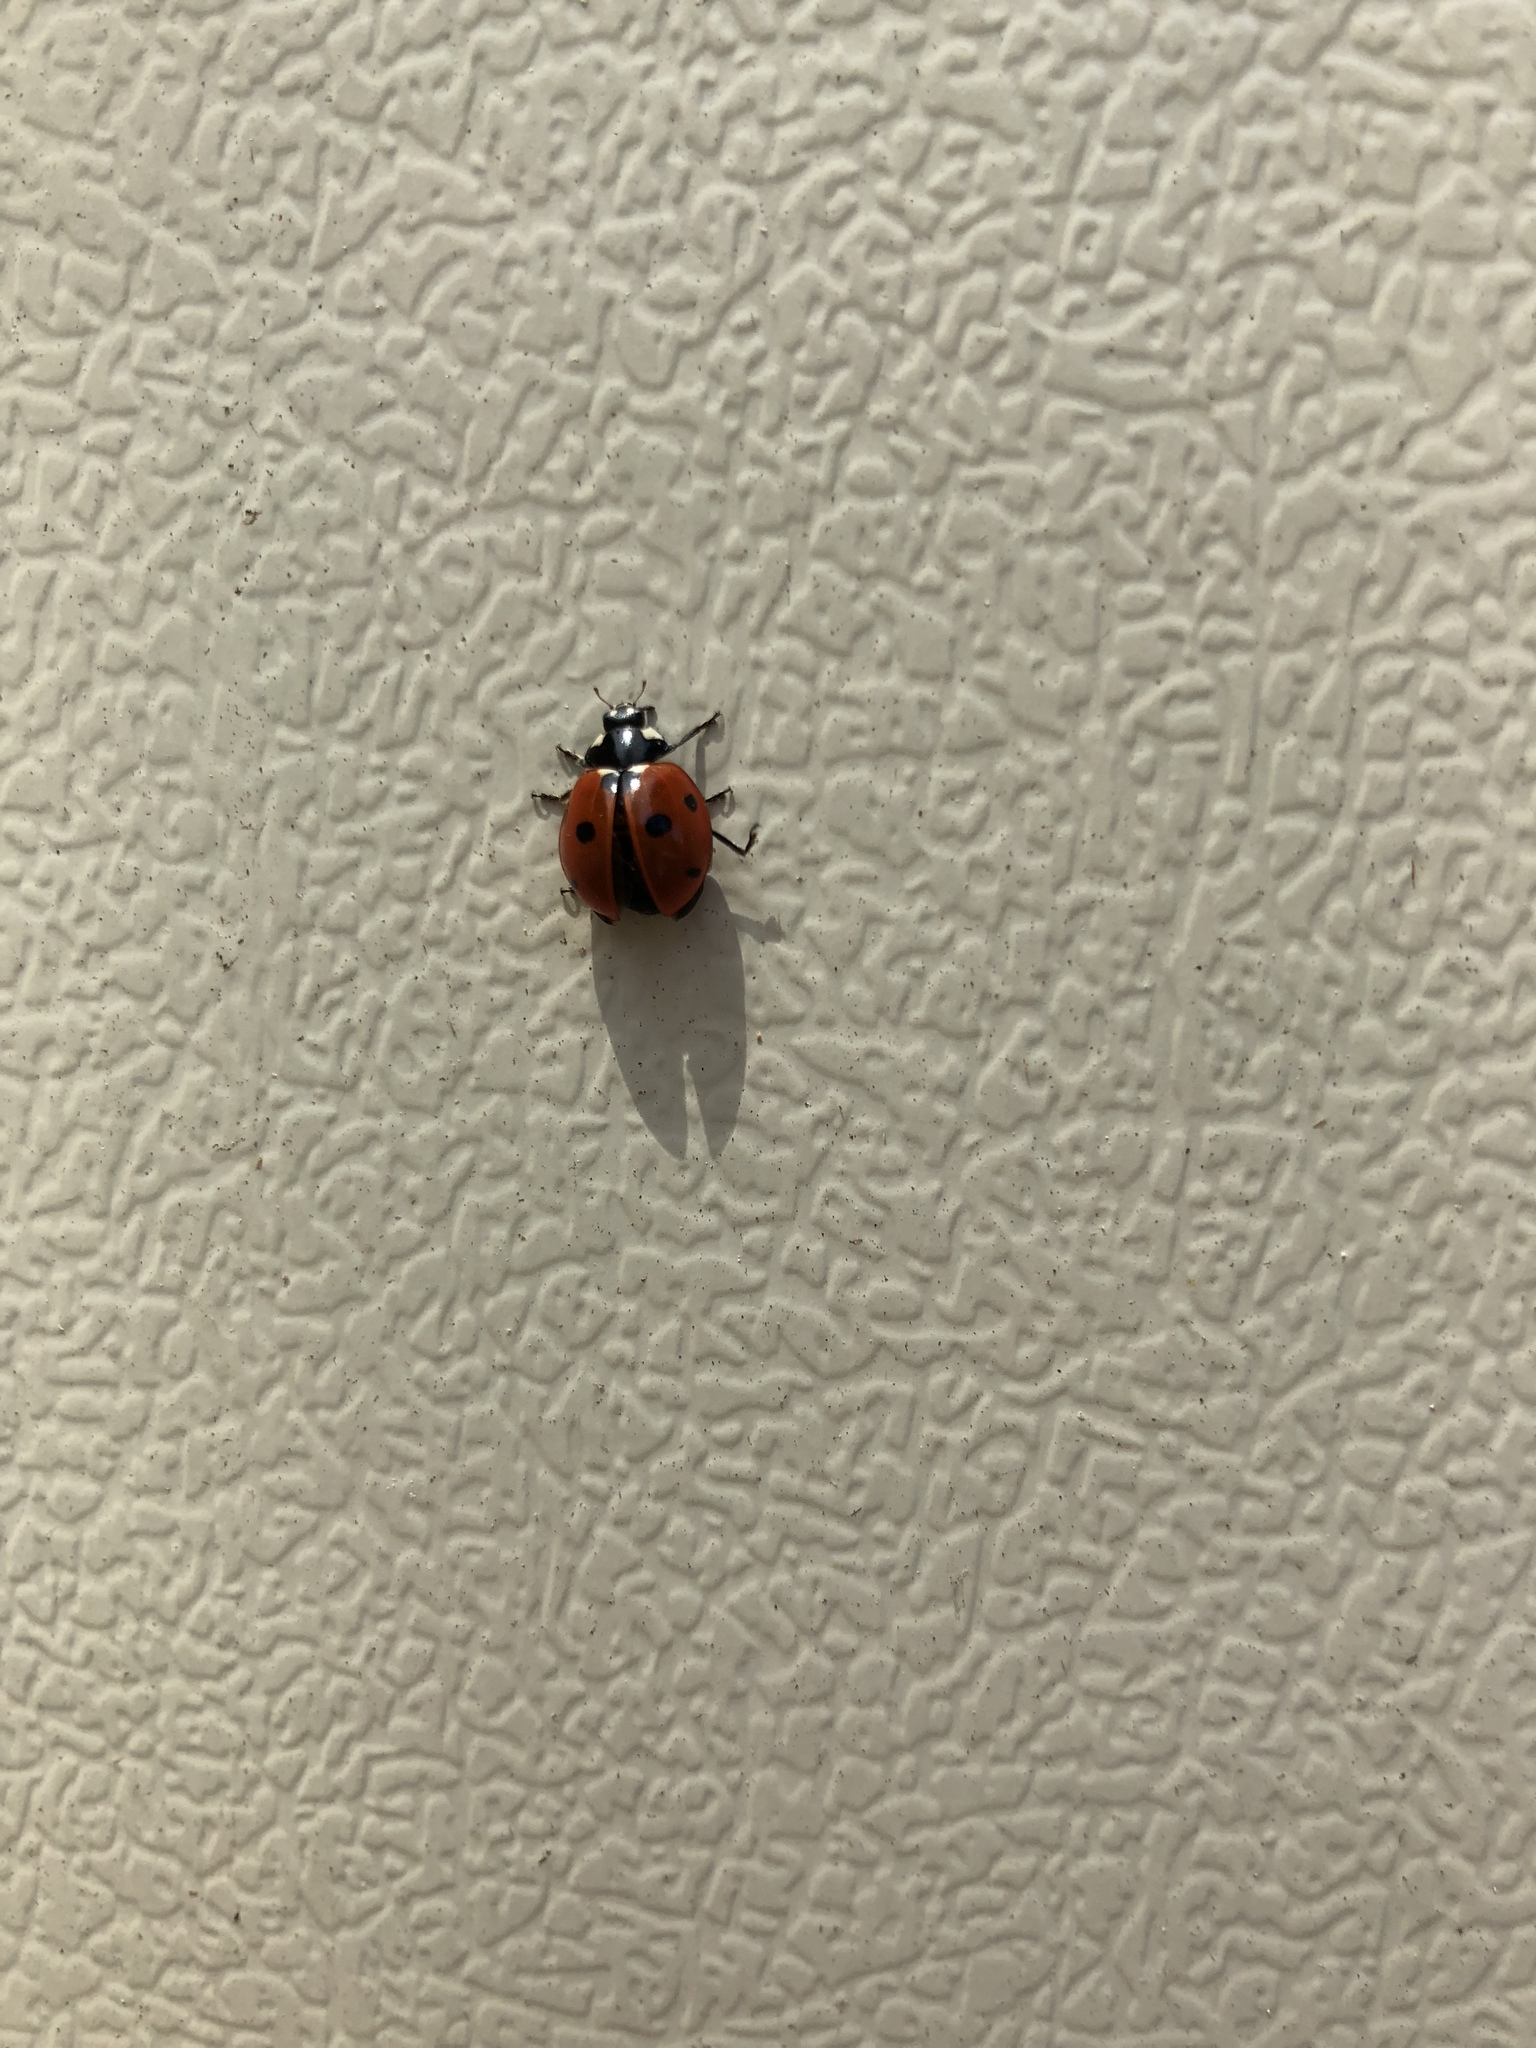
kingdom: Animalia
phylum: Arthropoda
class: Insecta
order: Coleoptera
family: Coccinellidae
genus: Coccinella
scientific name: Coccinella septempunctata
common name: Sevenspotted lady beetle
